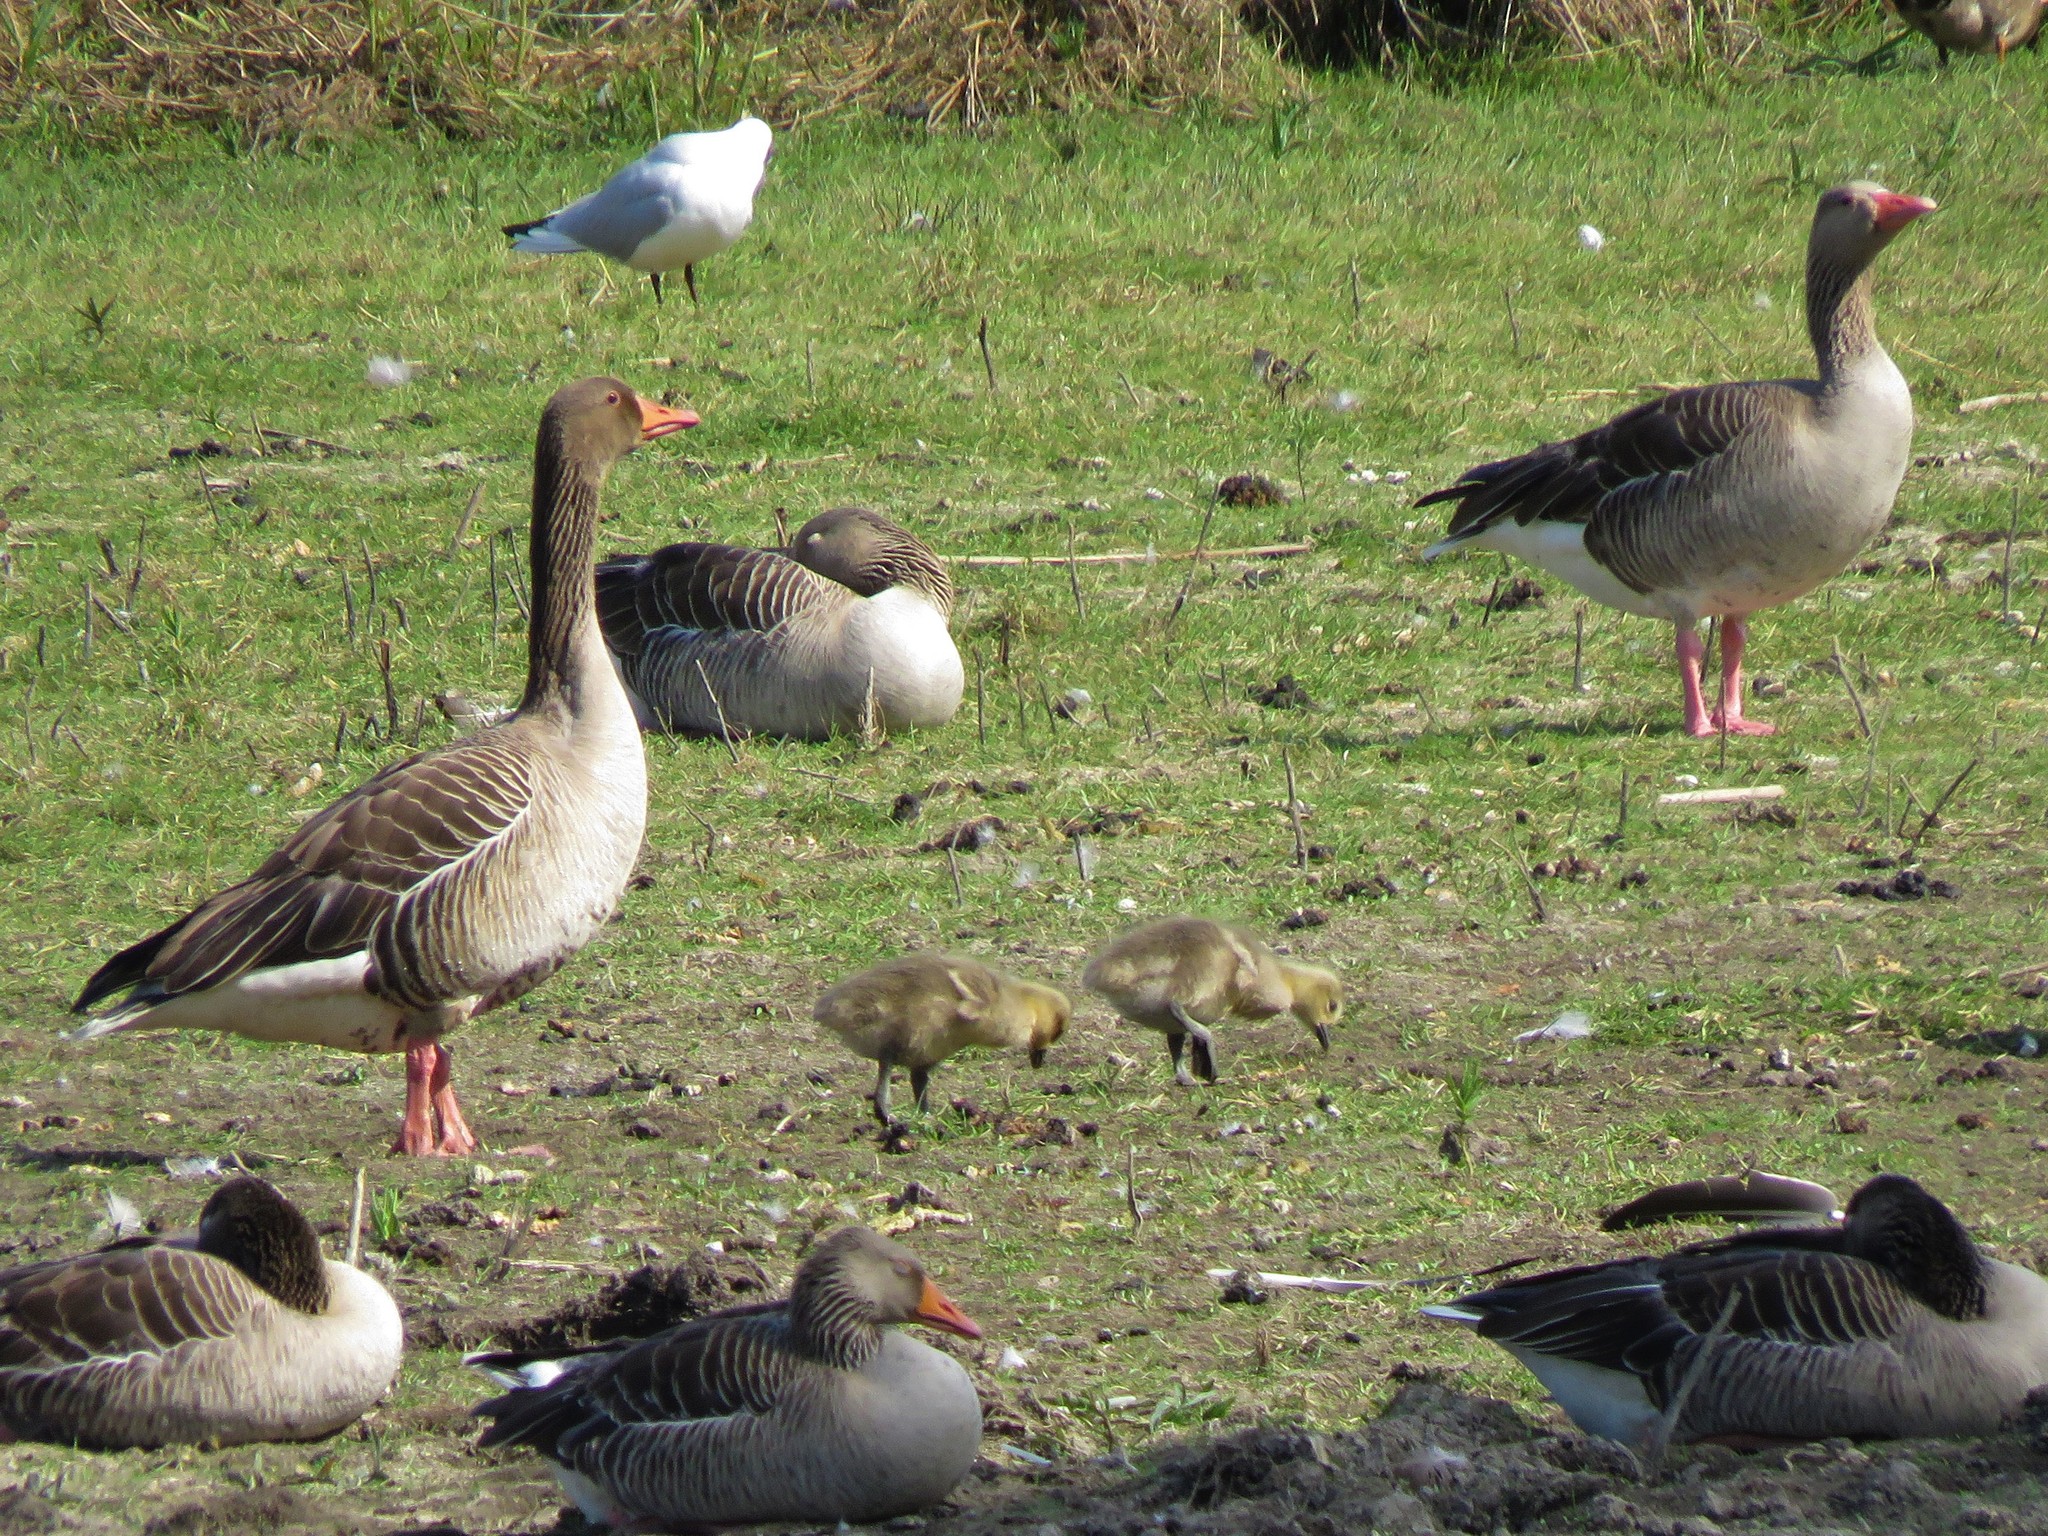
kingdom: Animalia
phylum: Chordata
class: Aves
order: Anseriformes
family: Anatidae
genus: Anser
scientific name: Anser anser
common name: Greylag goose
